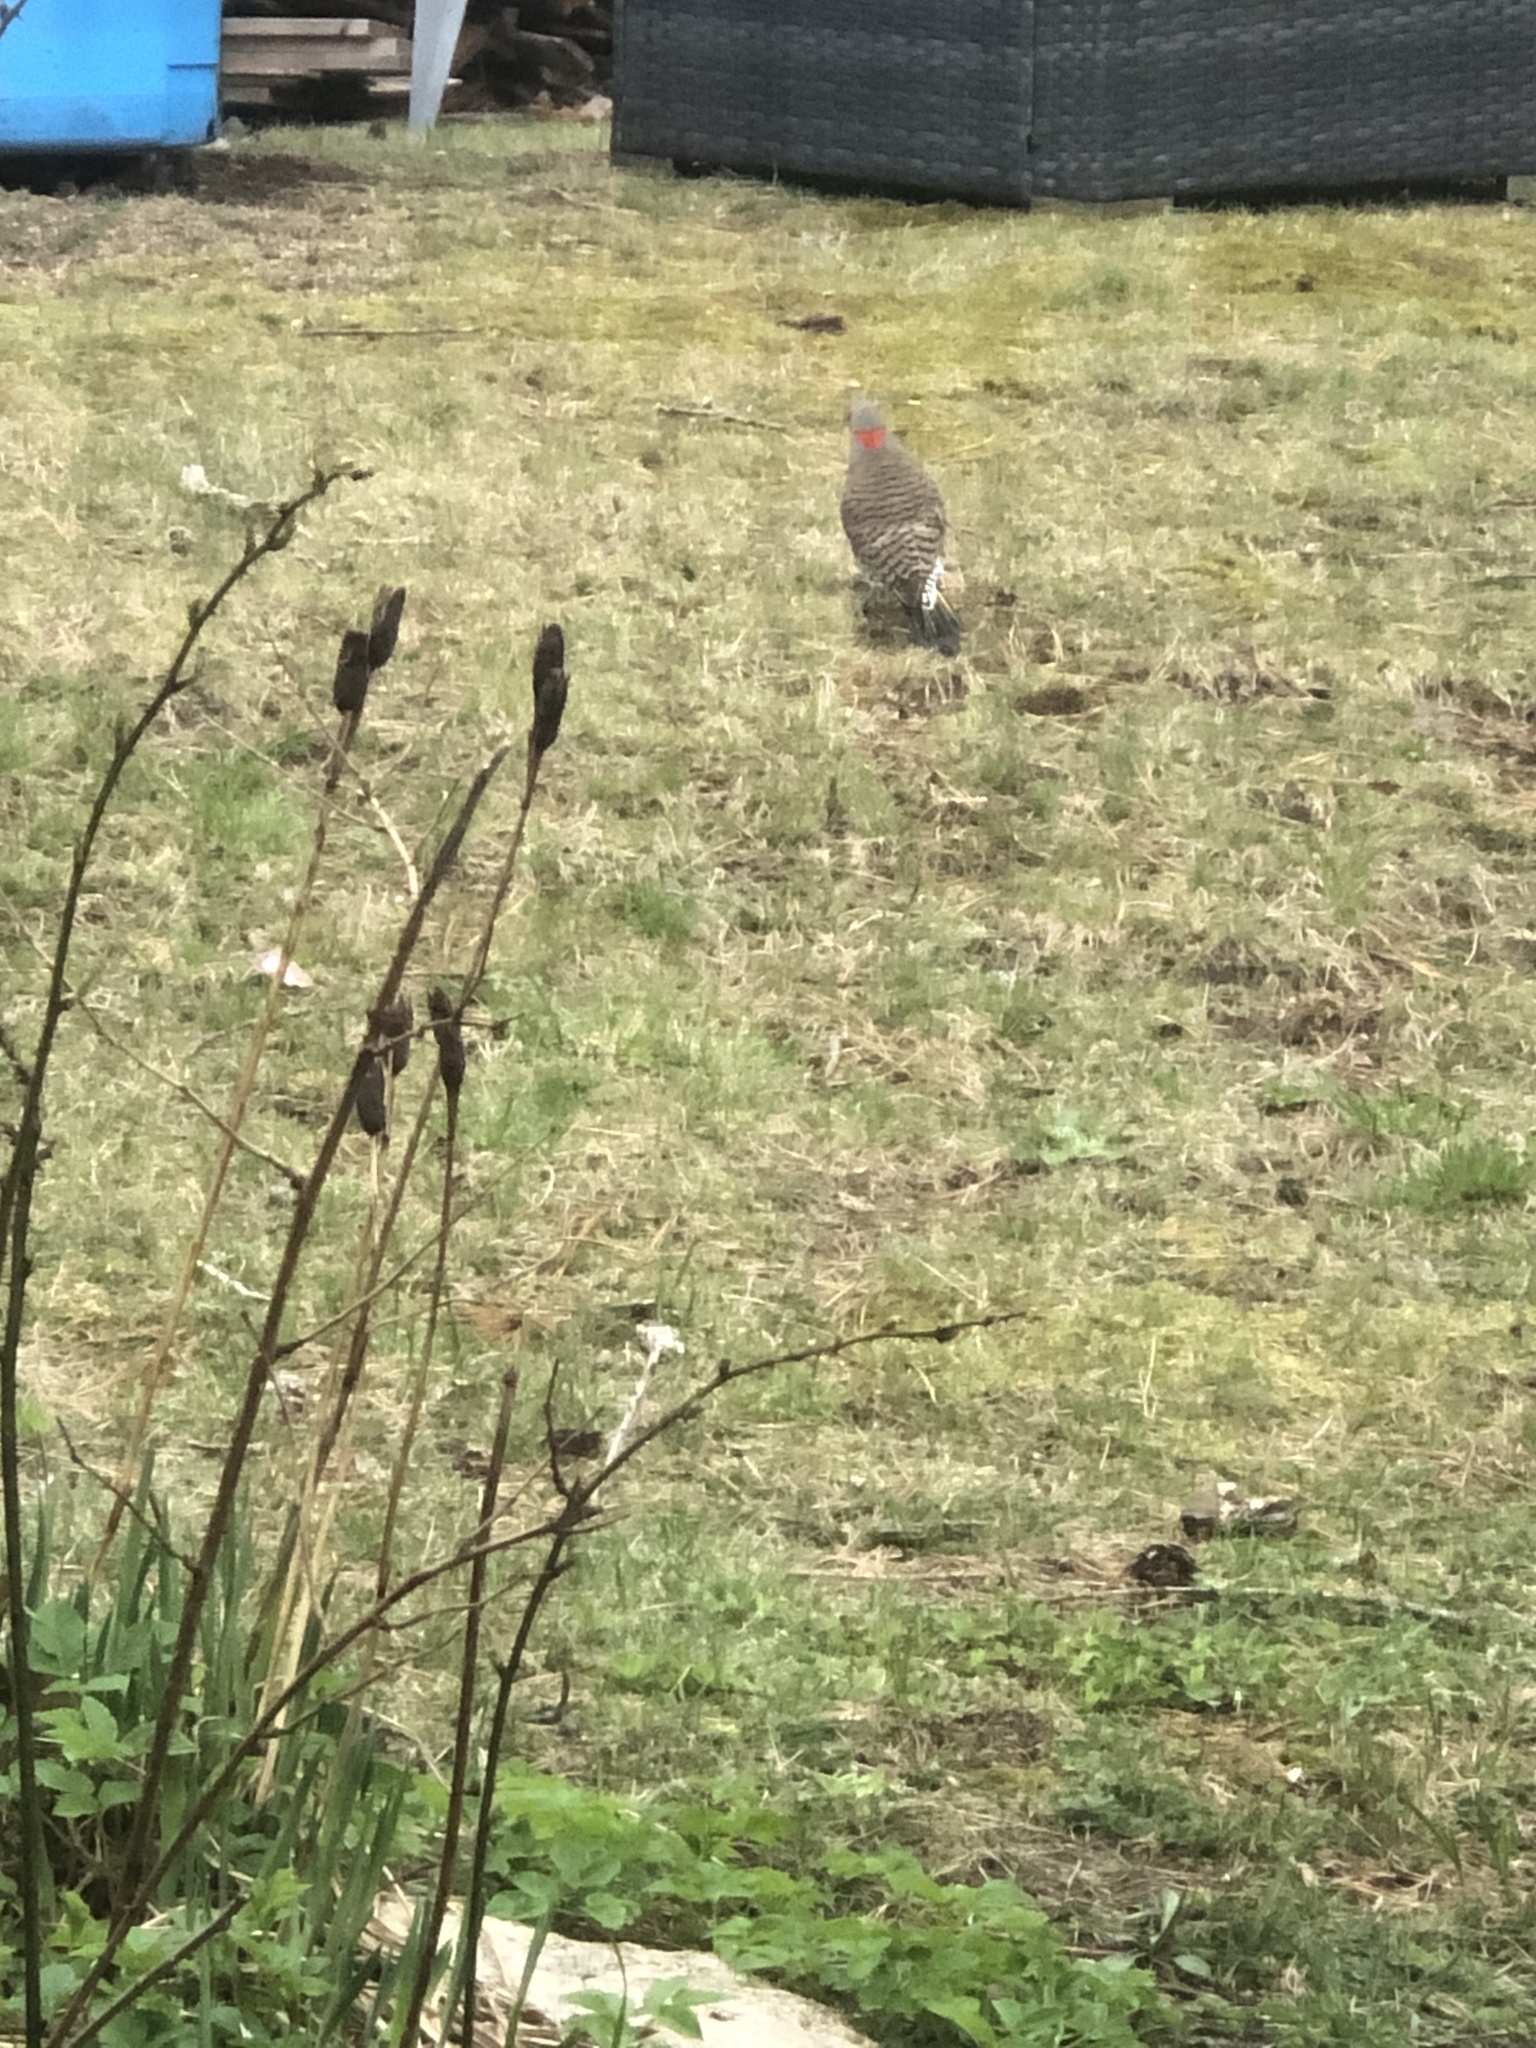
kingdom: Animalia
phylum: Chordata
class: Aves
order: Piciformes
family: Picidae
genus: Colaptes
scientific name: Colaptes auratus
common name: Northern flicker
